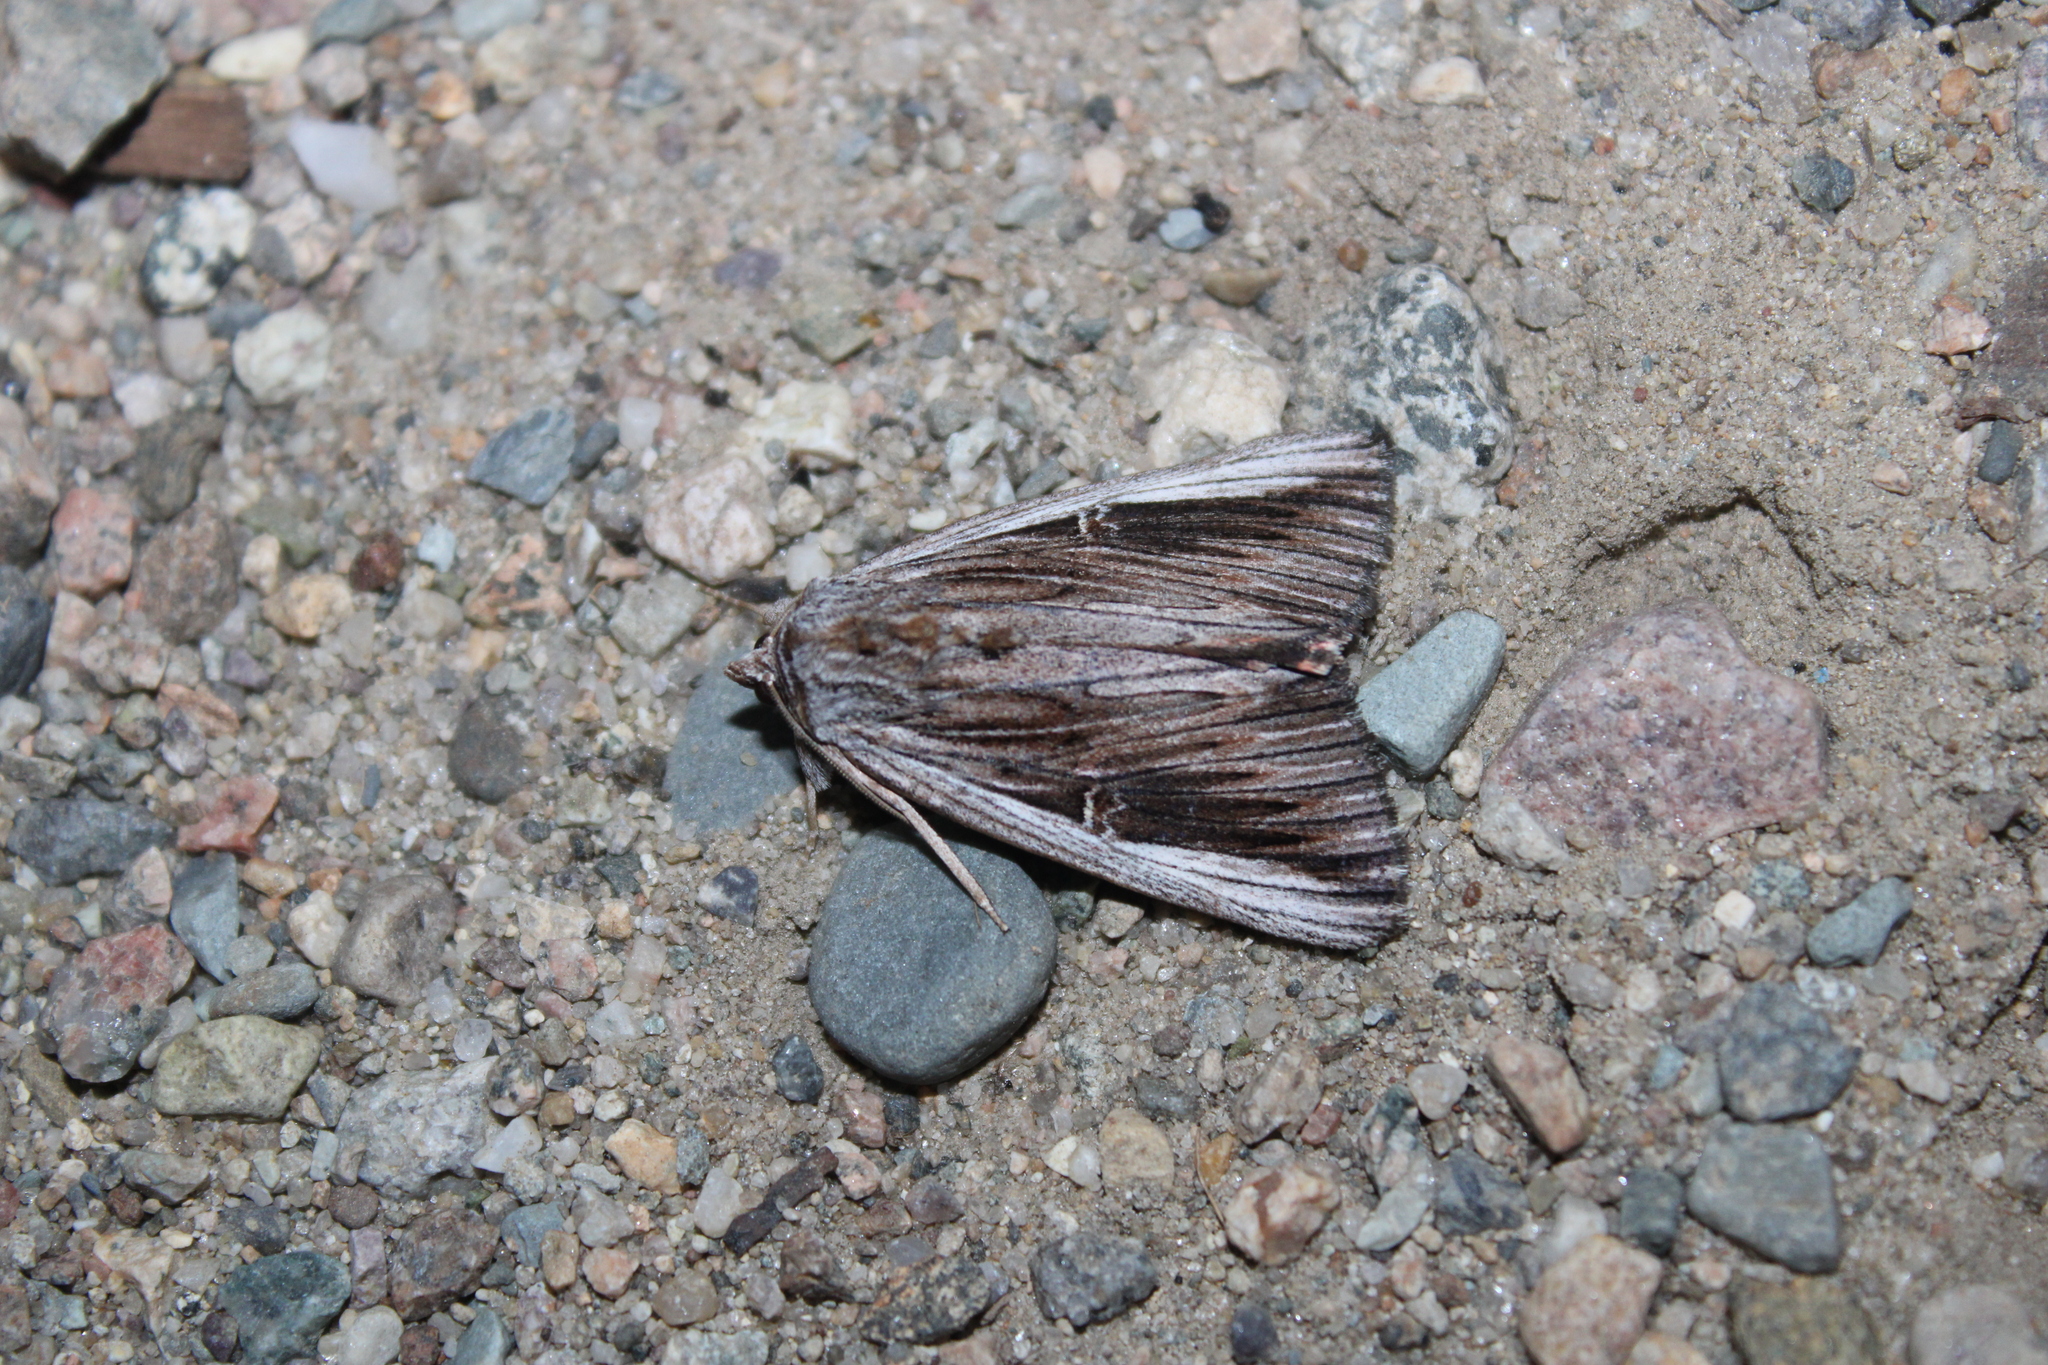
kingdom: Animalia
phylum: Arthropoda
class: Insecta
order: Lepidoptera
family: Erebidae
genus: Catocala
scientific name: Catocala herodias
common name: Pine barrens underwing
